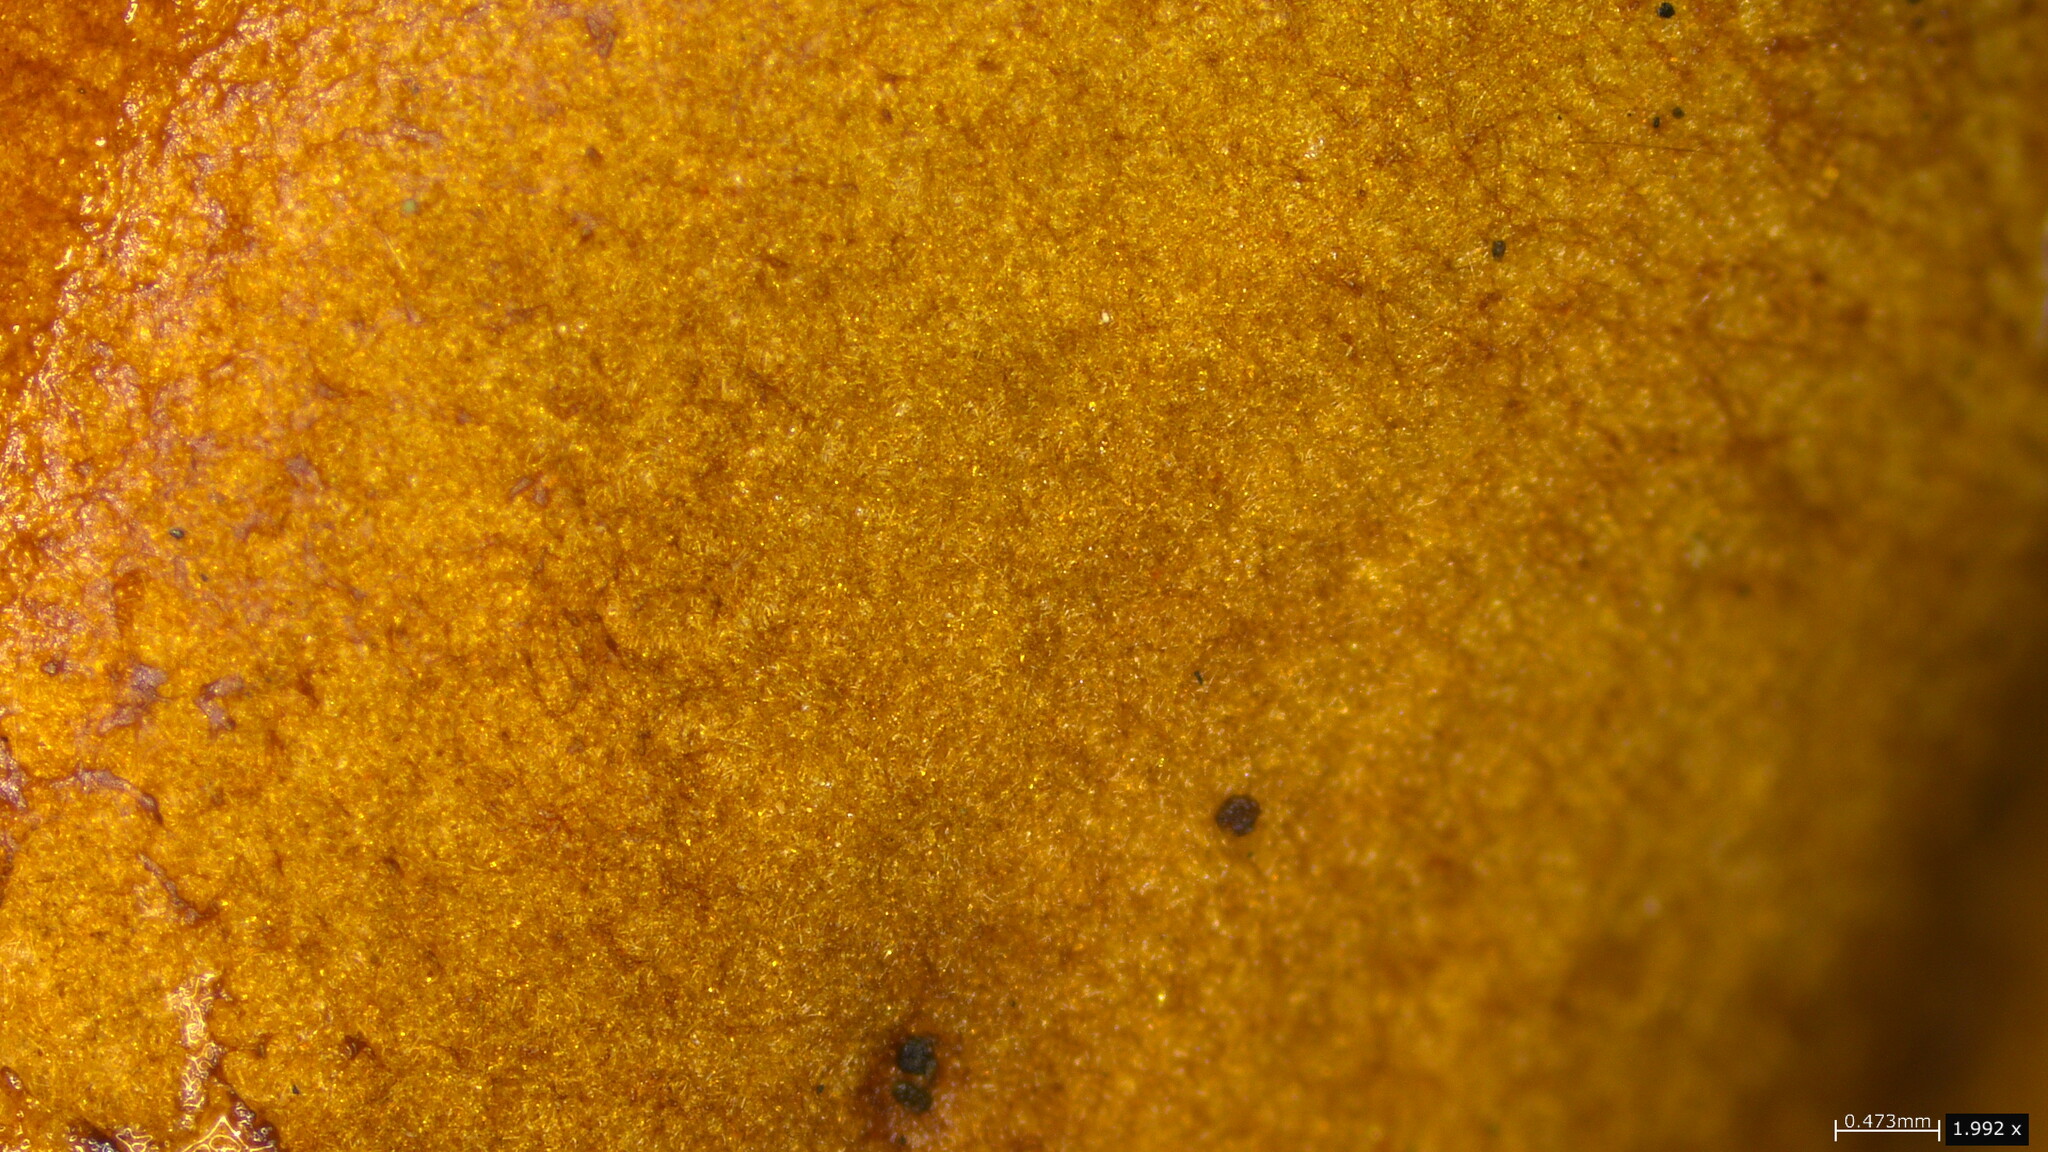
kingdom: Fungi
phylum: Basidiomycota
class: Agaricomycetes
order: Boletales
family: Boletaceae
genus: Phylloporus
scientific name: Phylloporus bellus
